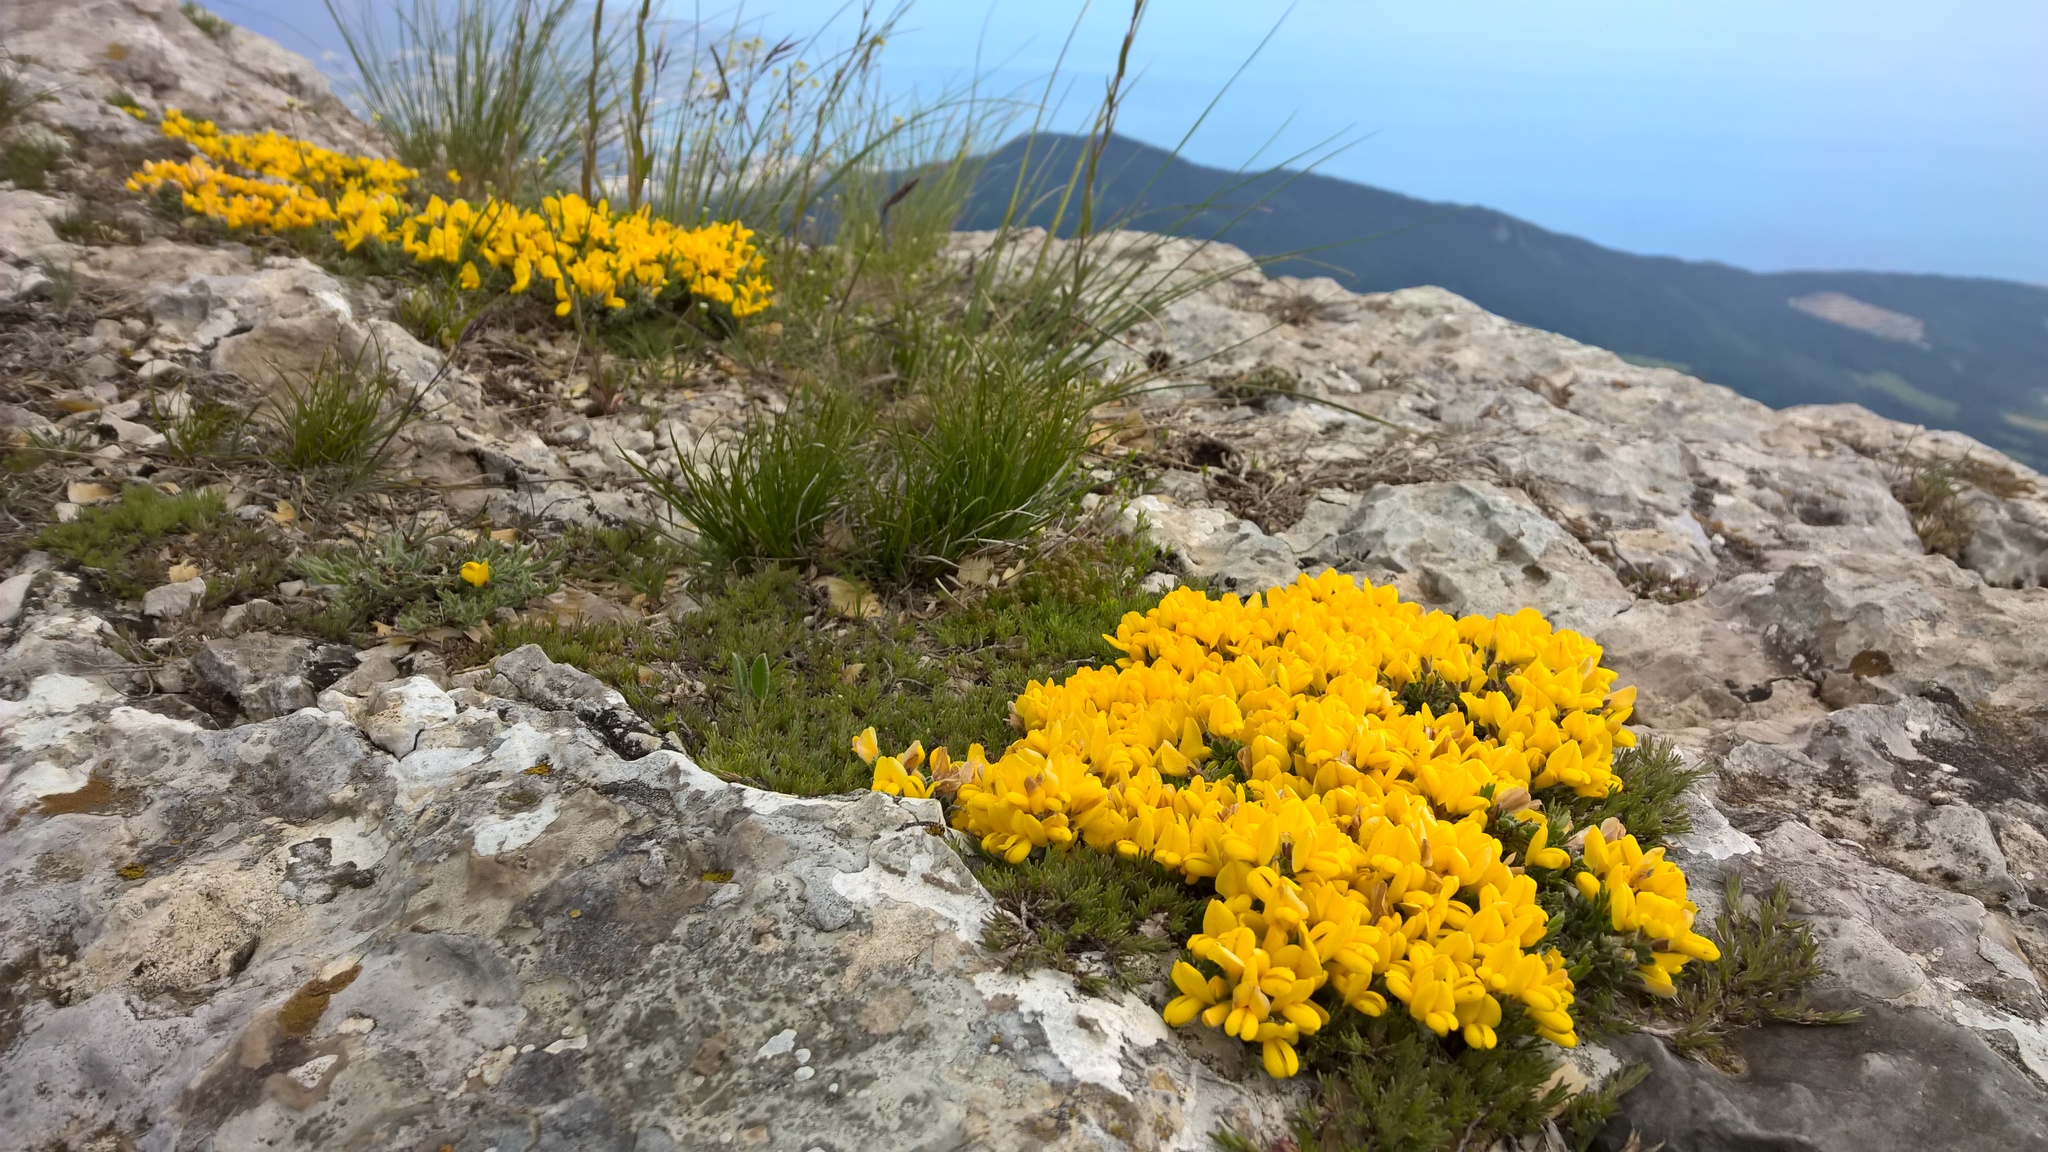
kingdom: Plantae
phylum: Tracheophyta
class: Magnoliopsida
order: Fabales
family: Fabaceae
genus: Chamaecytisus
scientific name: Chamaecytisus wulfii
